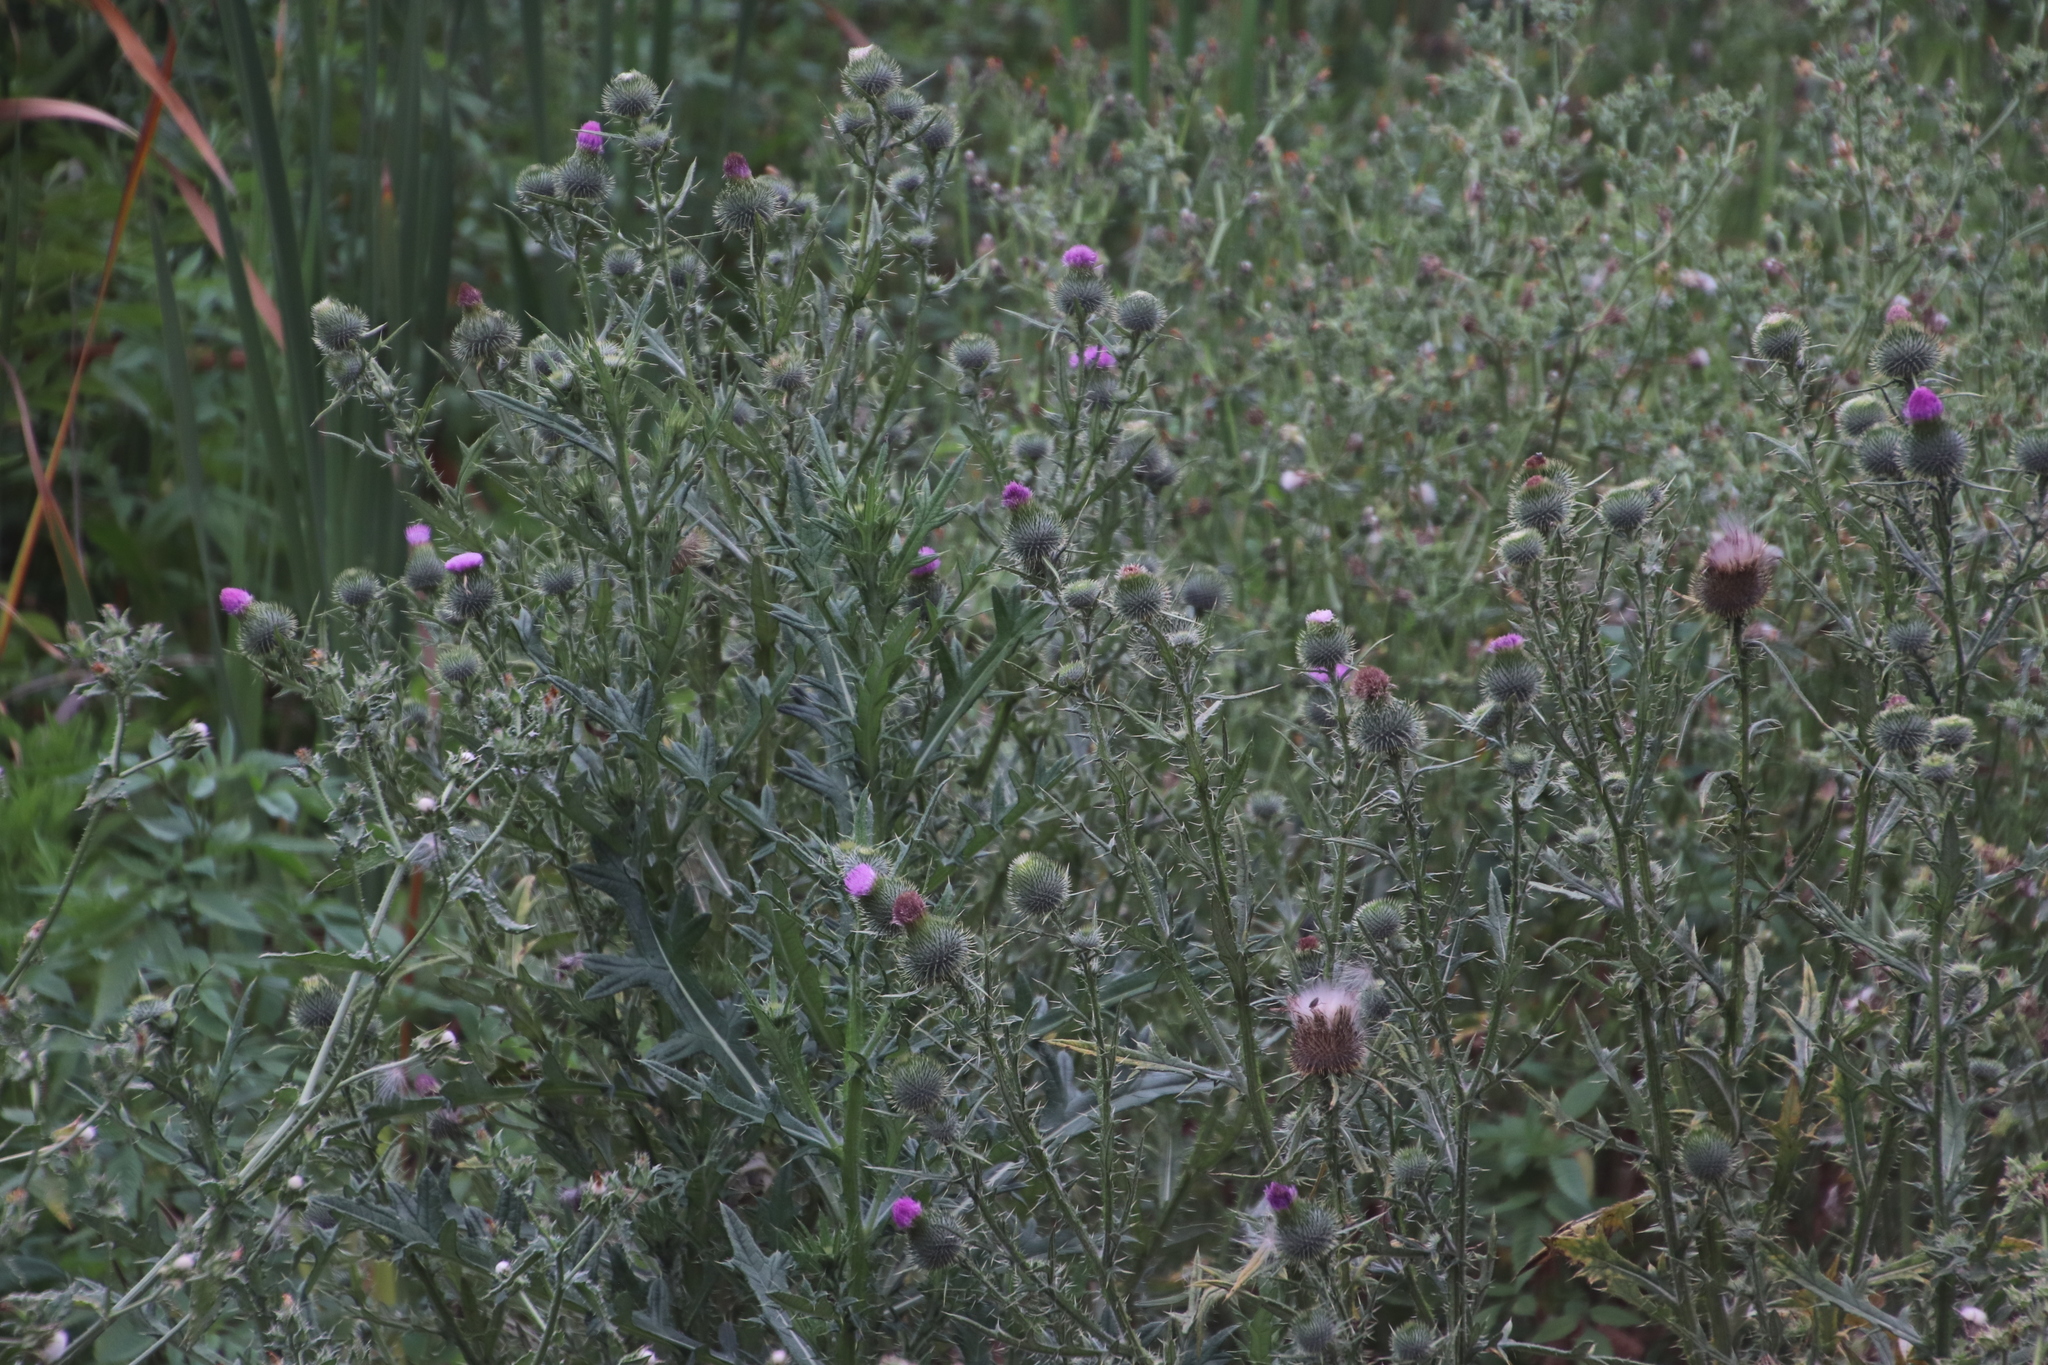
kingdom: Plantae
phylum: Tracheophyta
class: Magnoliopsida
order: Asterales
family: Asteraceae
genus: Cirsium
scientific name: Cirsium vulgare
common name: Bull thistle
